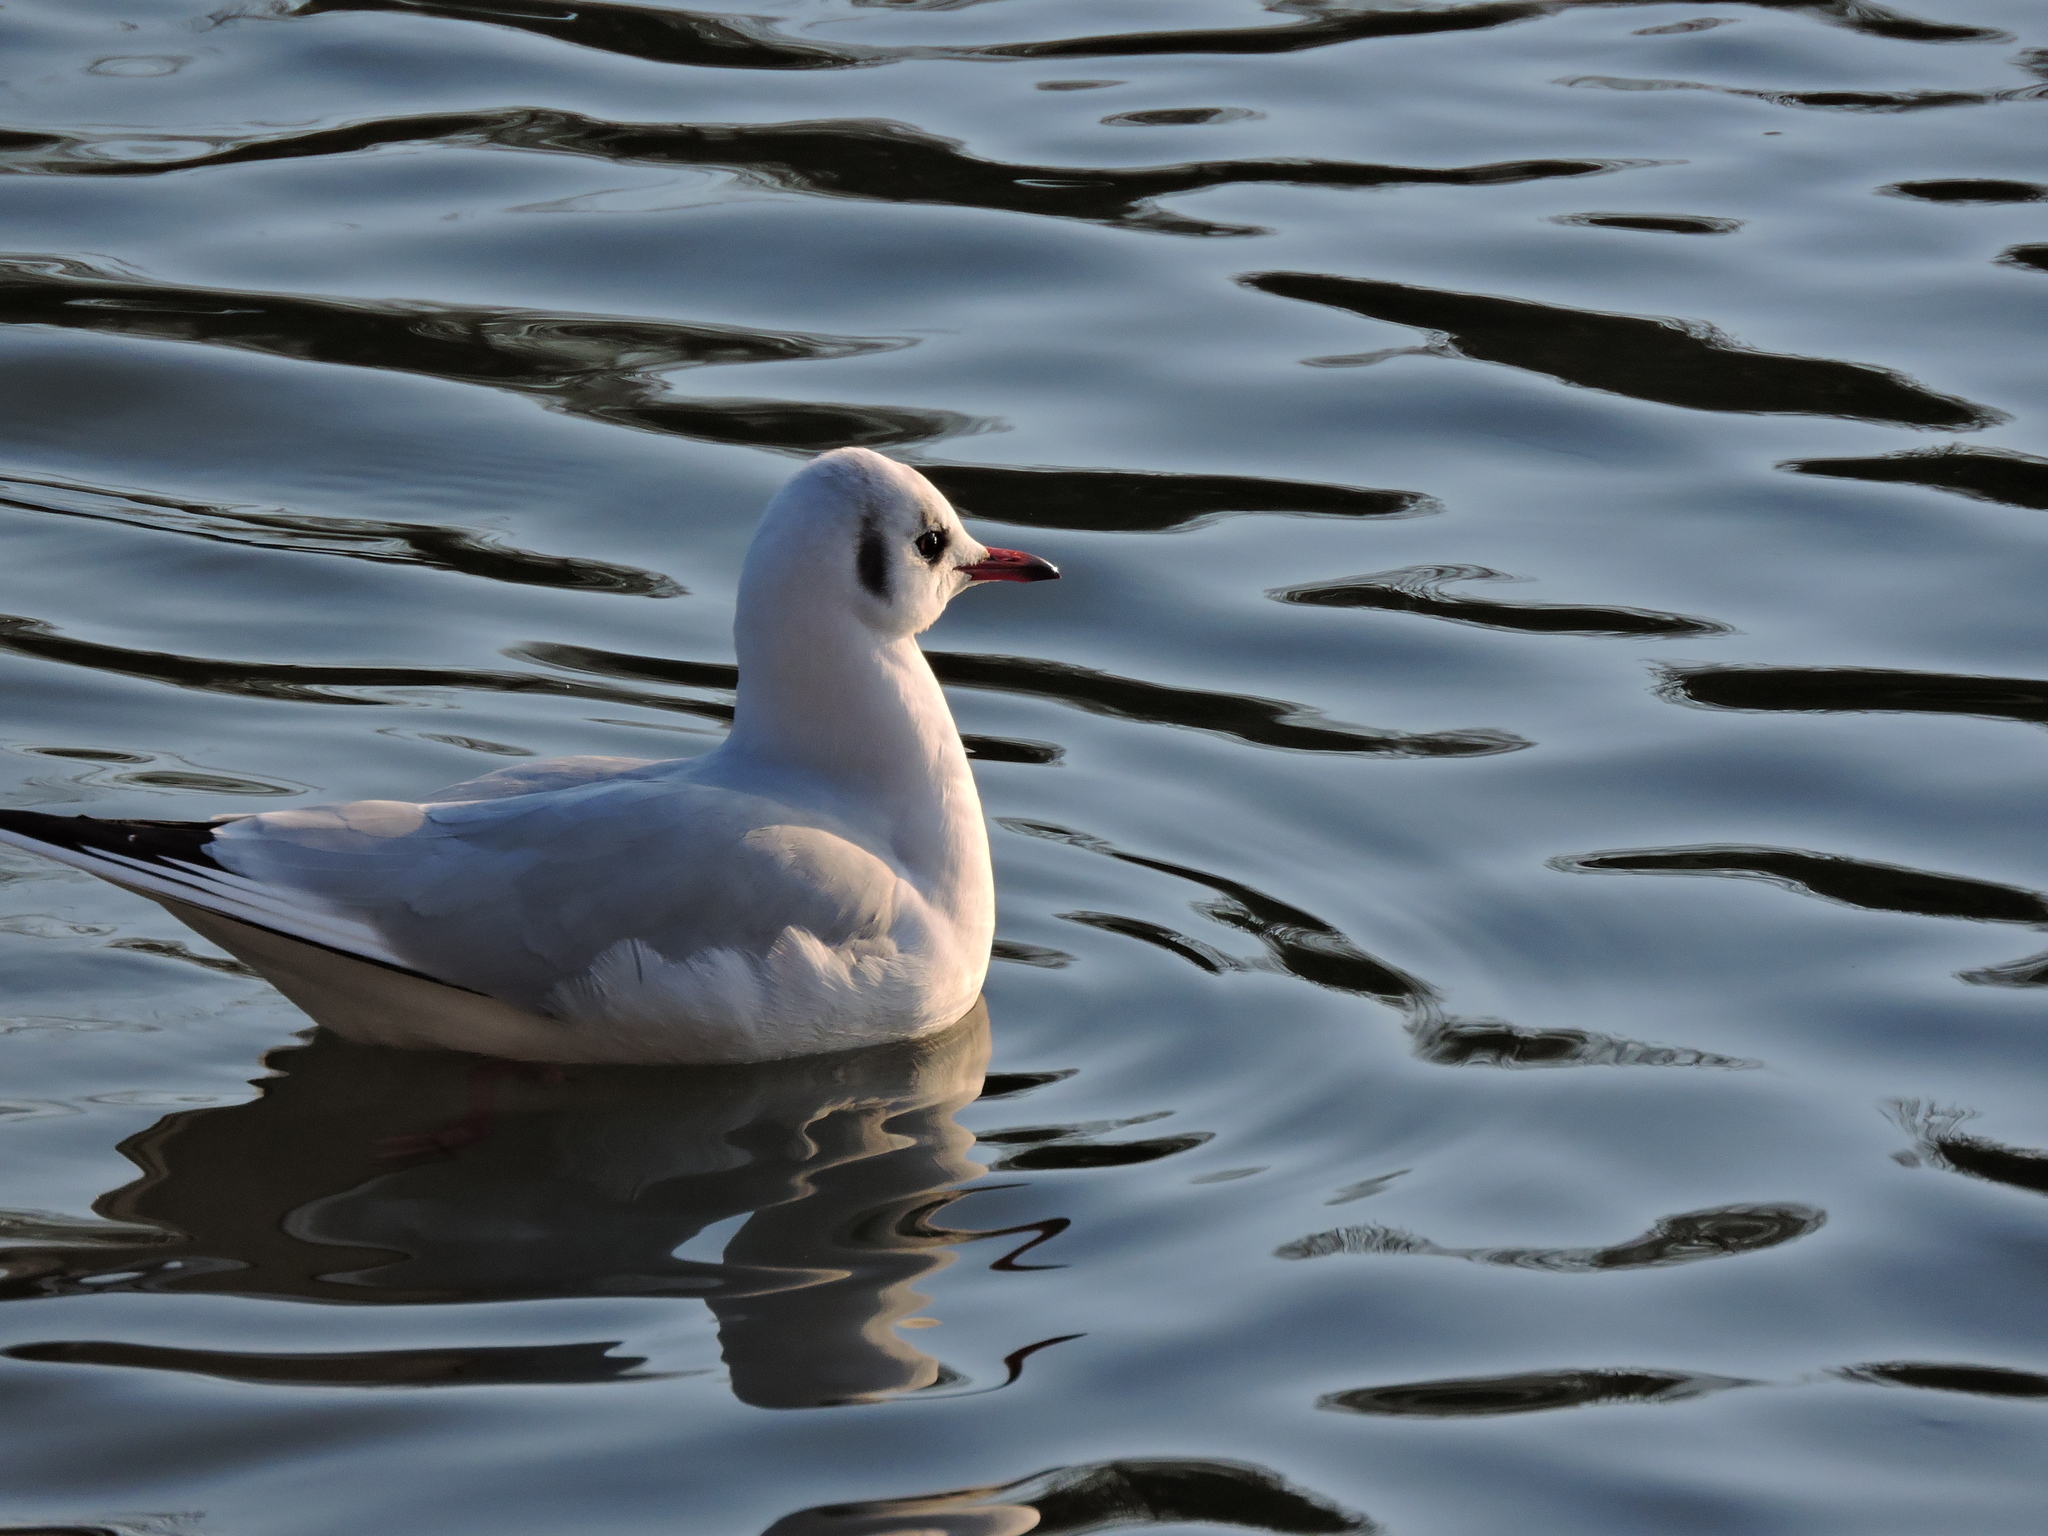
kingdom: Animalia
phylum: Chordata
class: Aves
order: Charadriiformes
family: Laridae
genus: Chroicocephalus
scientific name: Chroicocephalus ridibundus
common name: Black-headed gull
